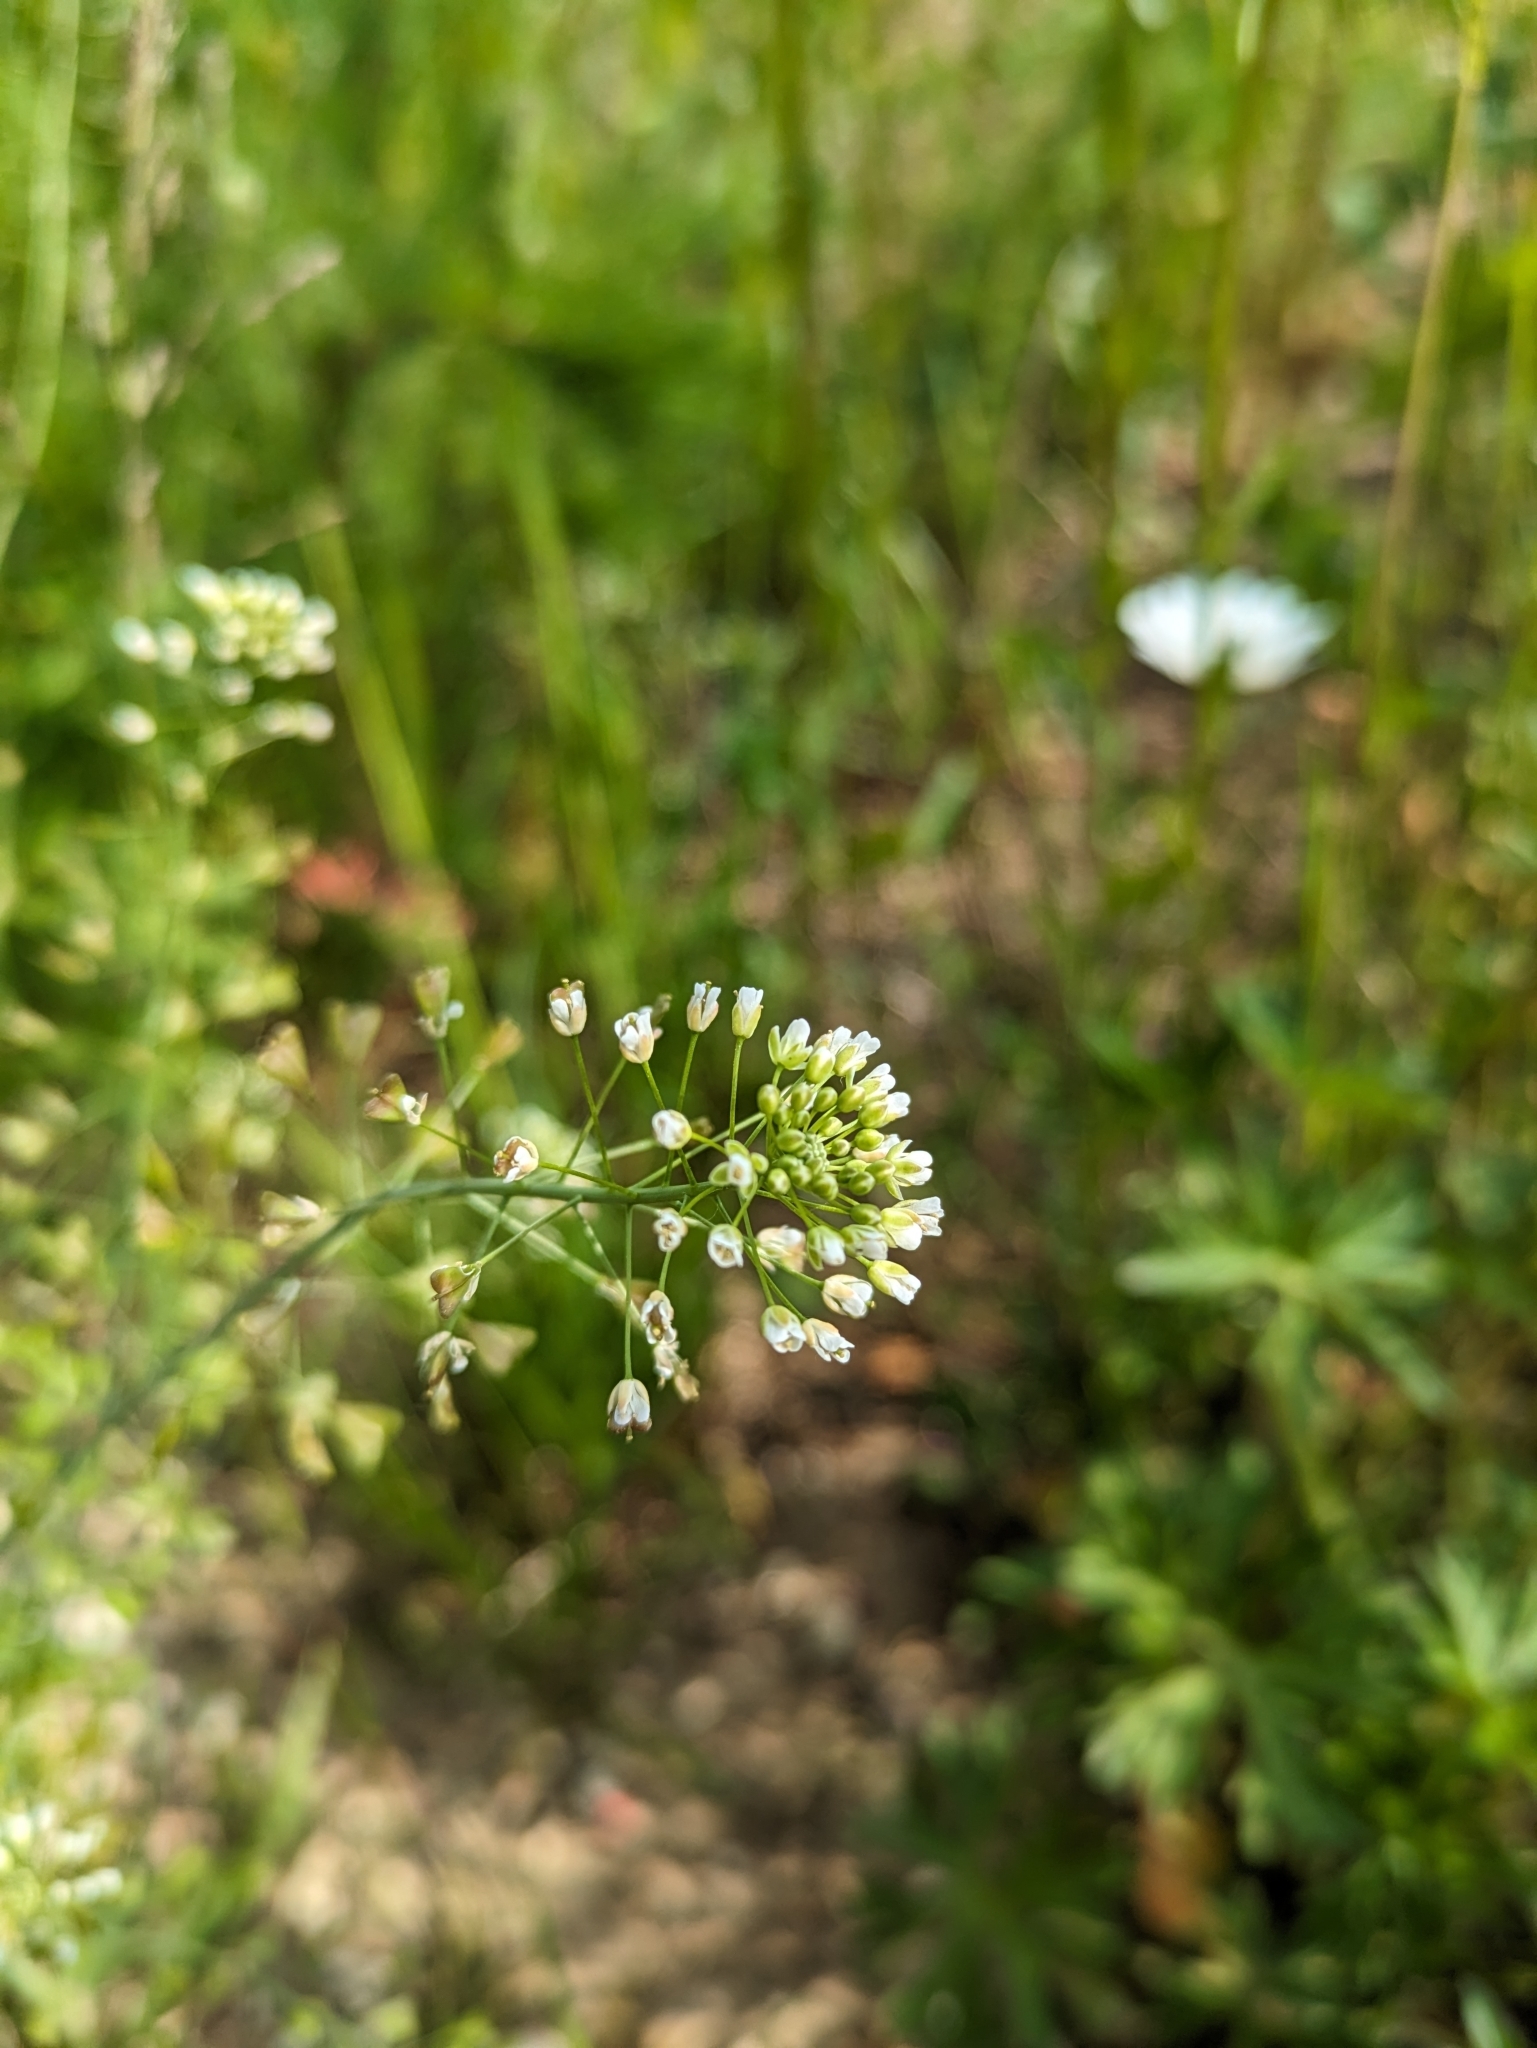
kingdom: Plantae
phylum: Tracheophyta
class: Magnoliopsida
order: Brassicales
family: Brassicaceae
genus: Capsella
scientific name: Capsella bursa-pastoris
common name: Shepherd's purse
